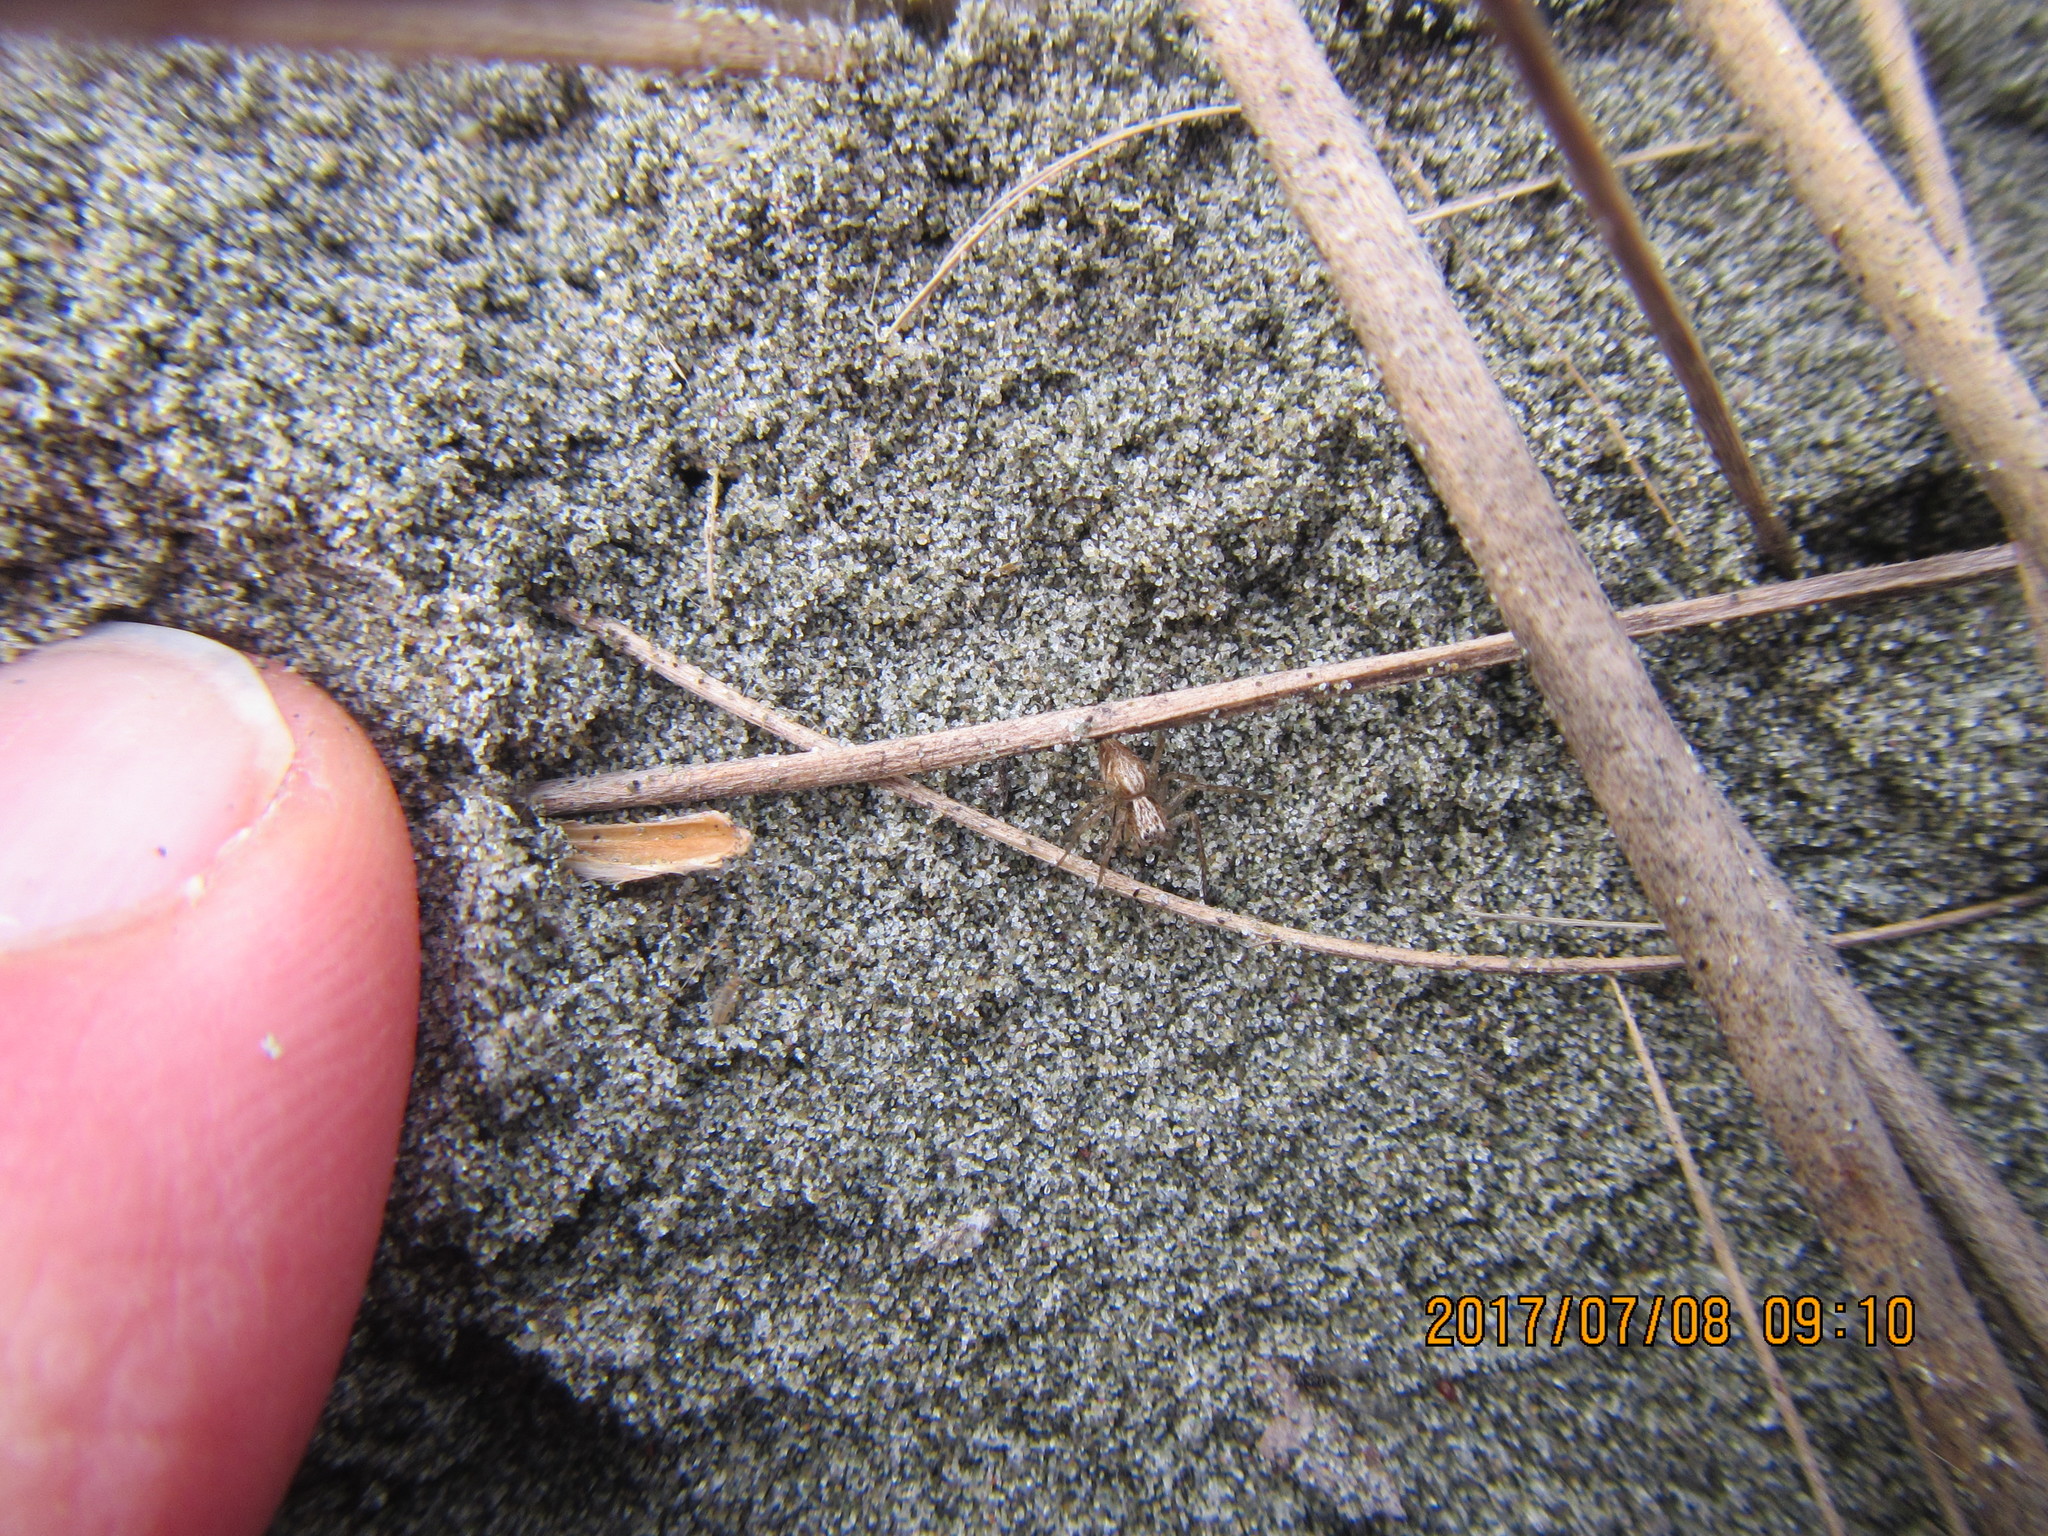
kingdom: Animalia
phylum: Arthropoda
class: Arachnida
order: Araneae
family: Oxyopidae
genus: Oxyopes
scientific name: Oxyopes gracilipes
